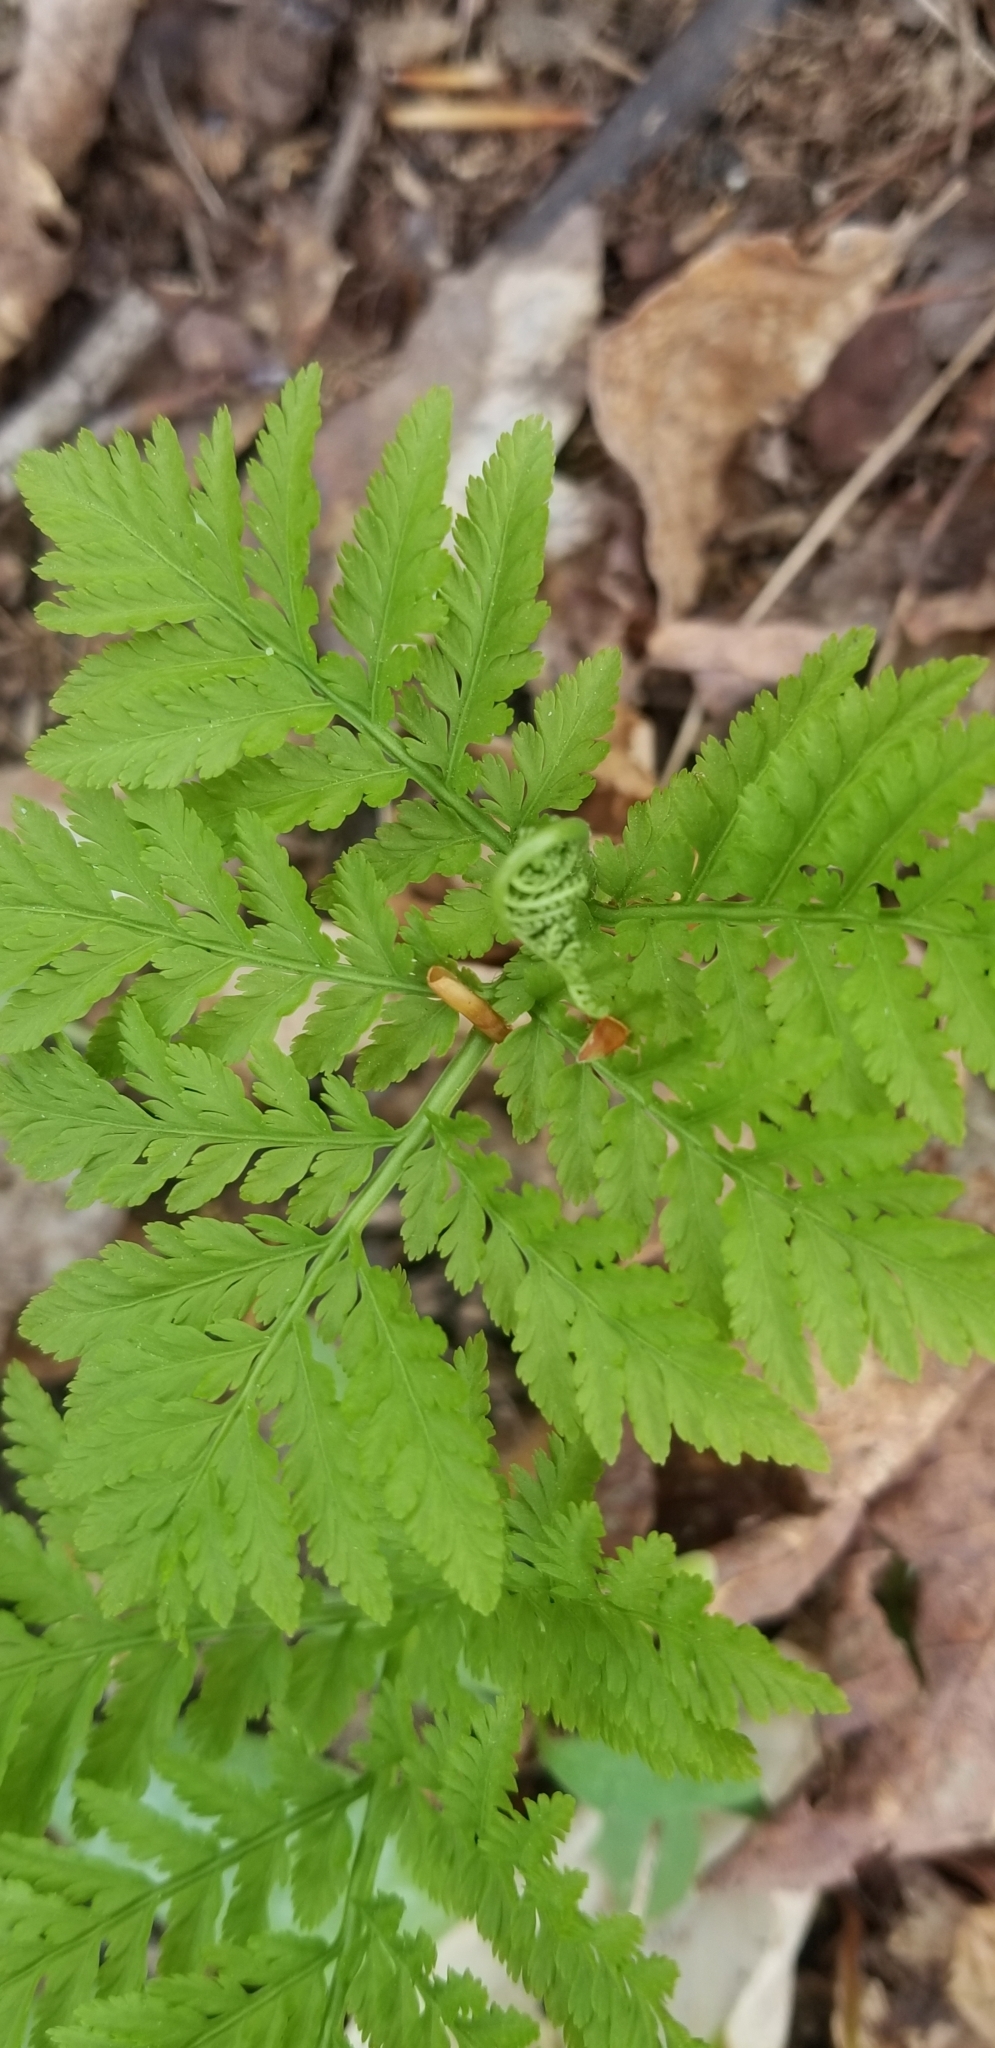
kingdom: Plantae
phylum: Tracheophyta
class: Polypodiopsida
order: Ophioglossales
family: Ophioglossaceae
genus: Botrypus
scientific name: Botrypus virginianus
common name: Common grapefern
